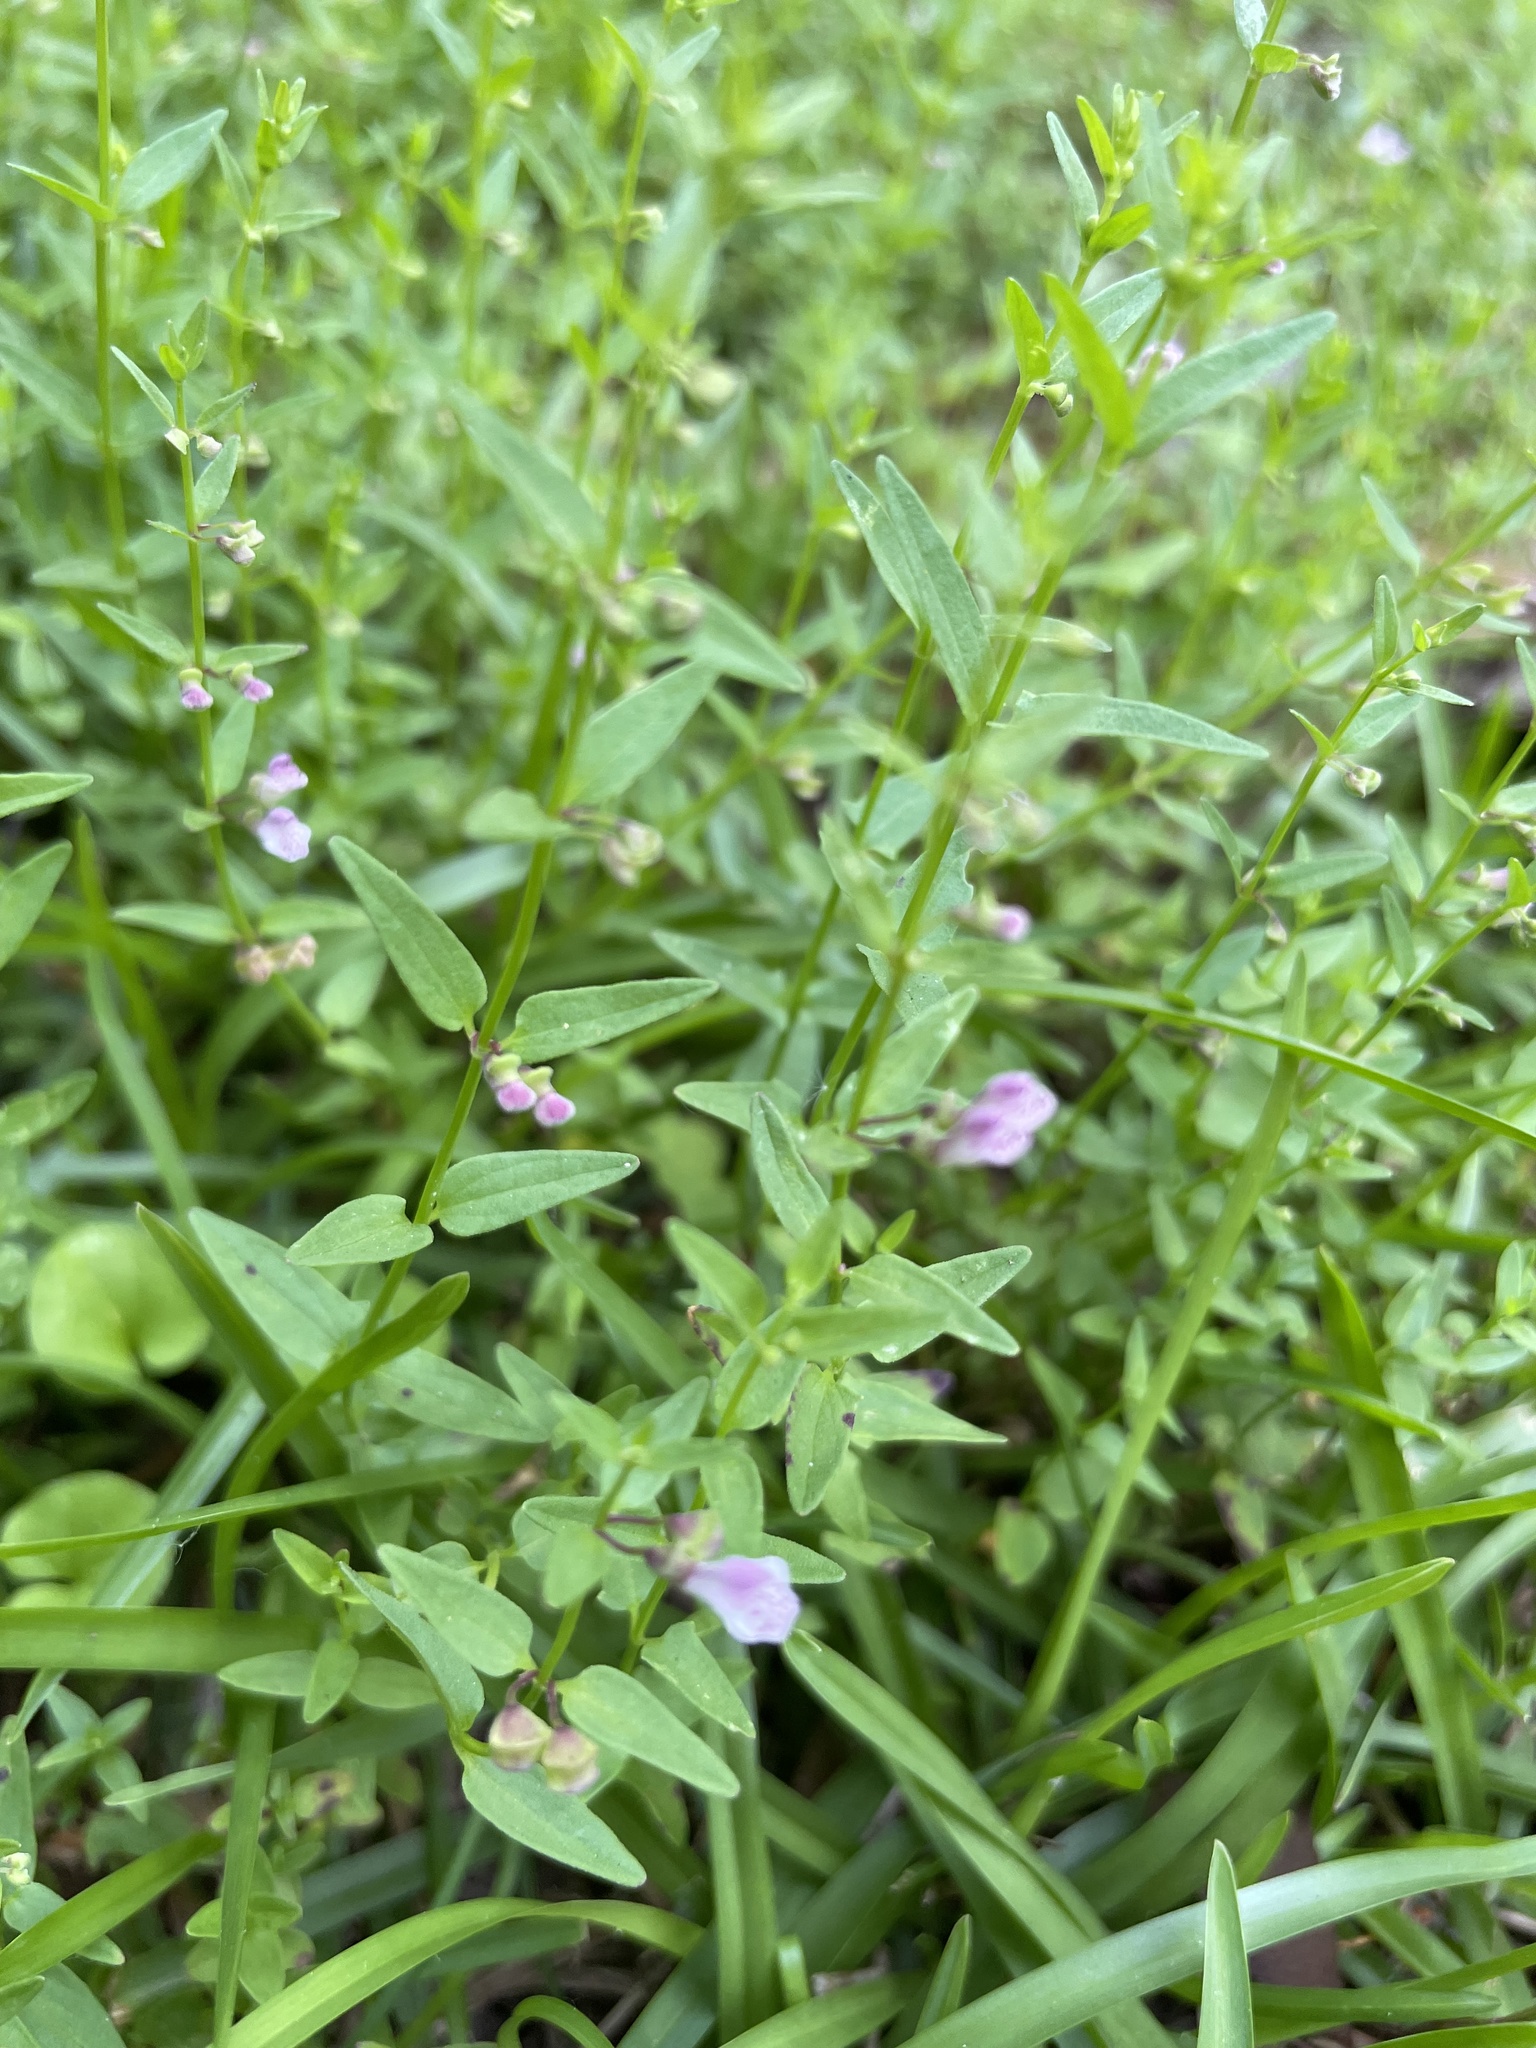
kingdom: Plantae
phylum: Tracheophyta
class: Magnoliopsida
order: Lamiales
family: Lamiaceae
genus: Scutellaria
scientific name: Scutellaria racemosa
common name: South american skullcap
